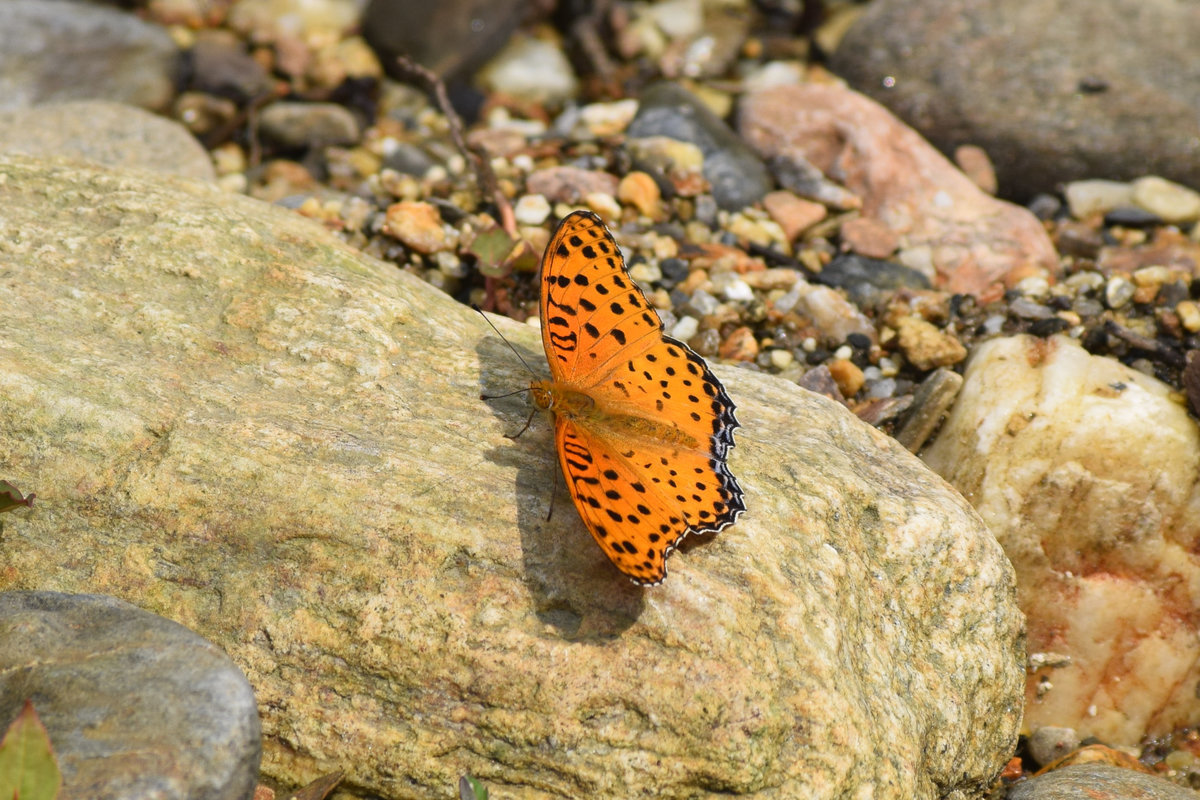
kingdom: Animalia
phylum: Arthropoda
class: Insecta
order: Lepidoptera
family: Nymphalidae
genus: Argynnis
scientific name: Argynnis hyperbius
